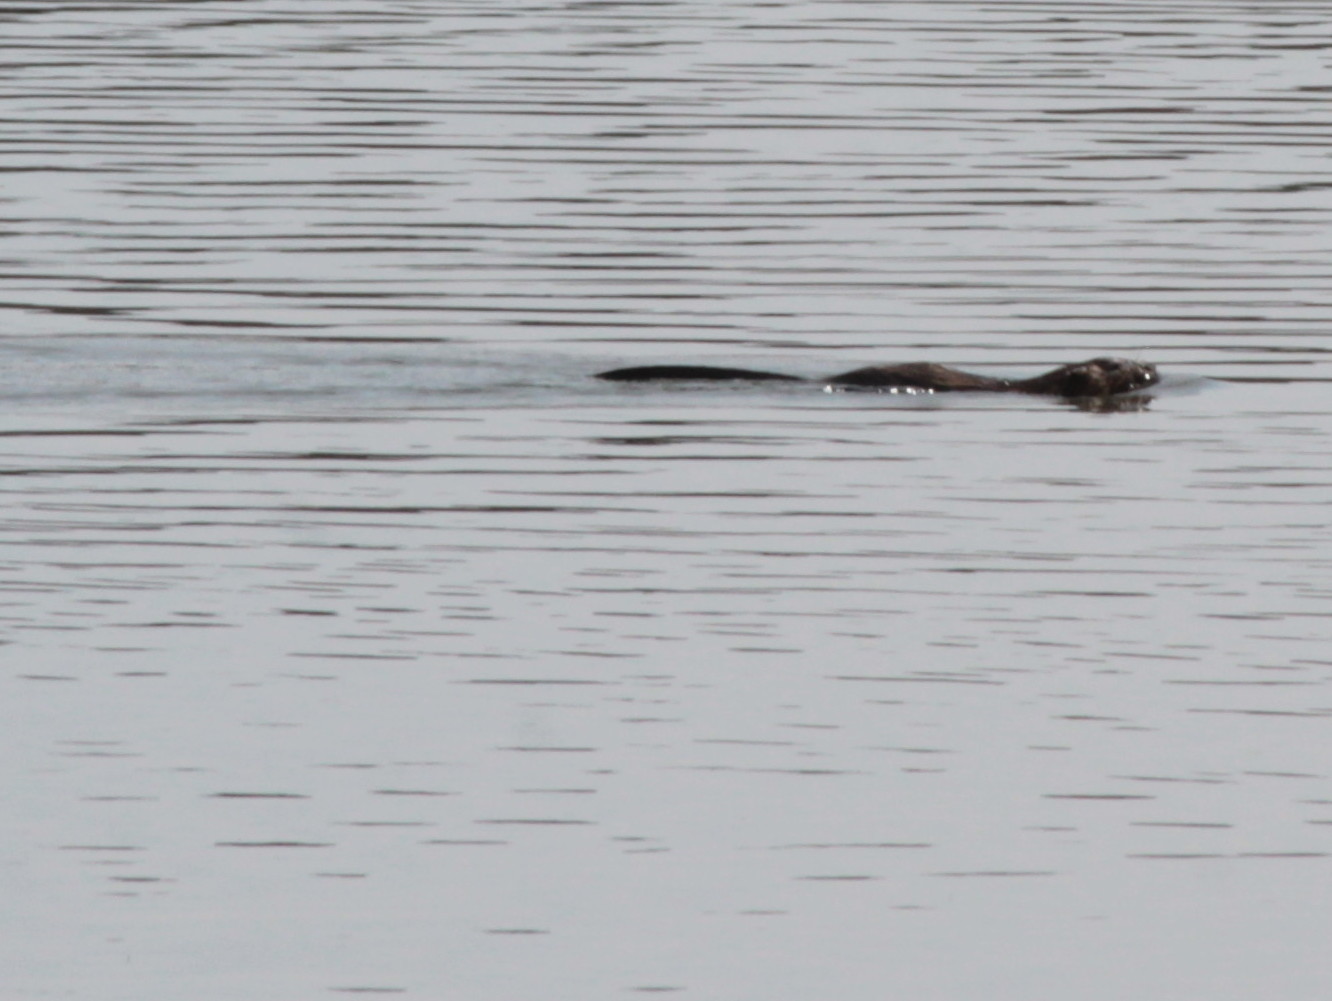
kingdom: Animalia
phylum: Chordata
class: Mammalia
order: Rodentia
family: Cricetidae
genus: Ondatra
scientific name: Ondatra zibethicus
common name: Muskrat
